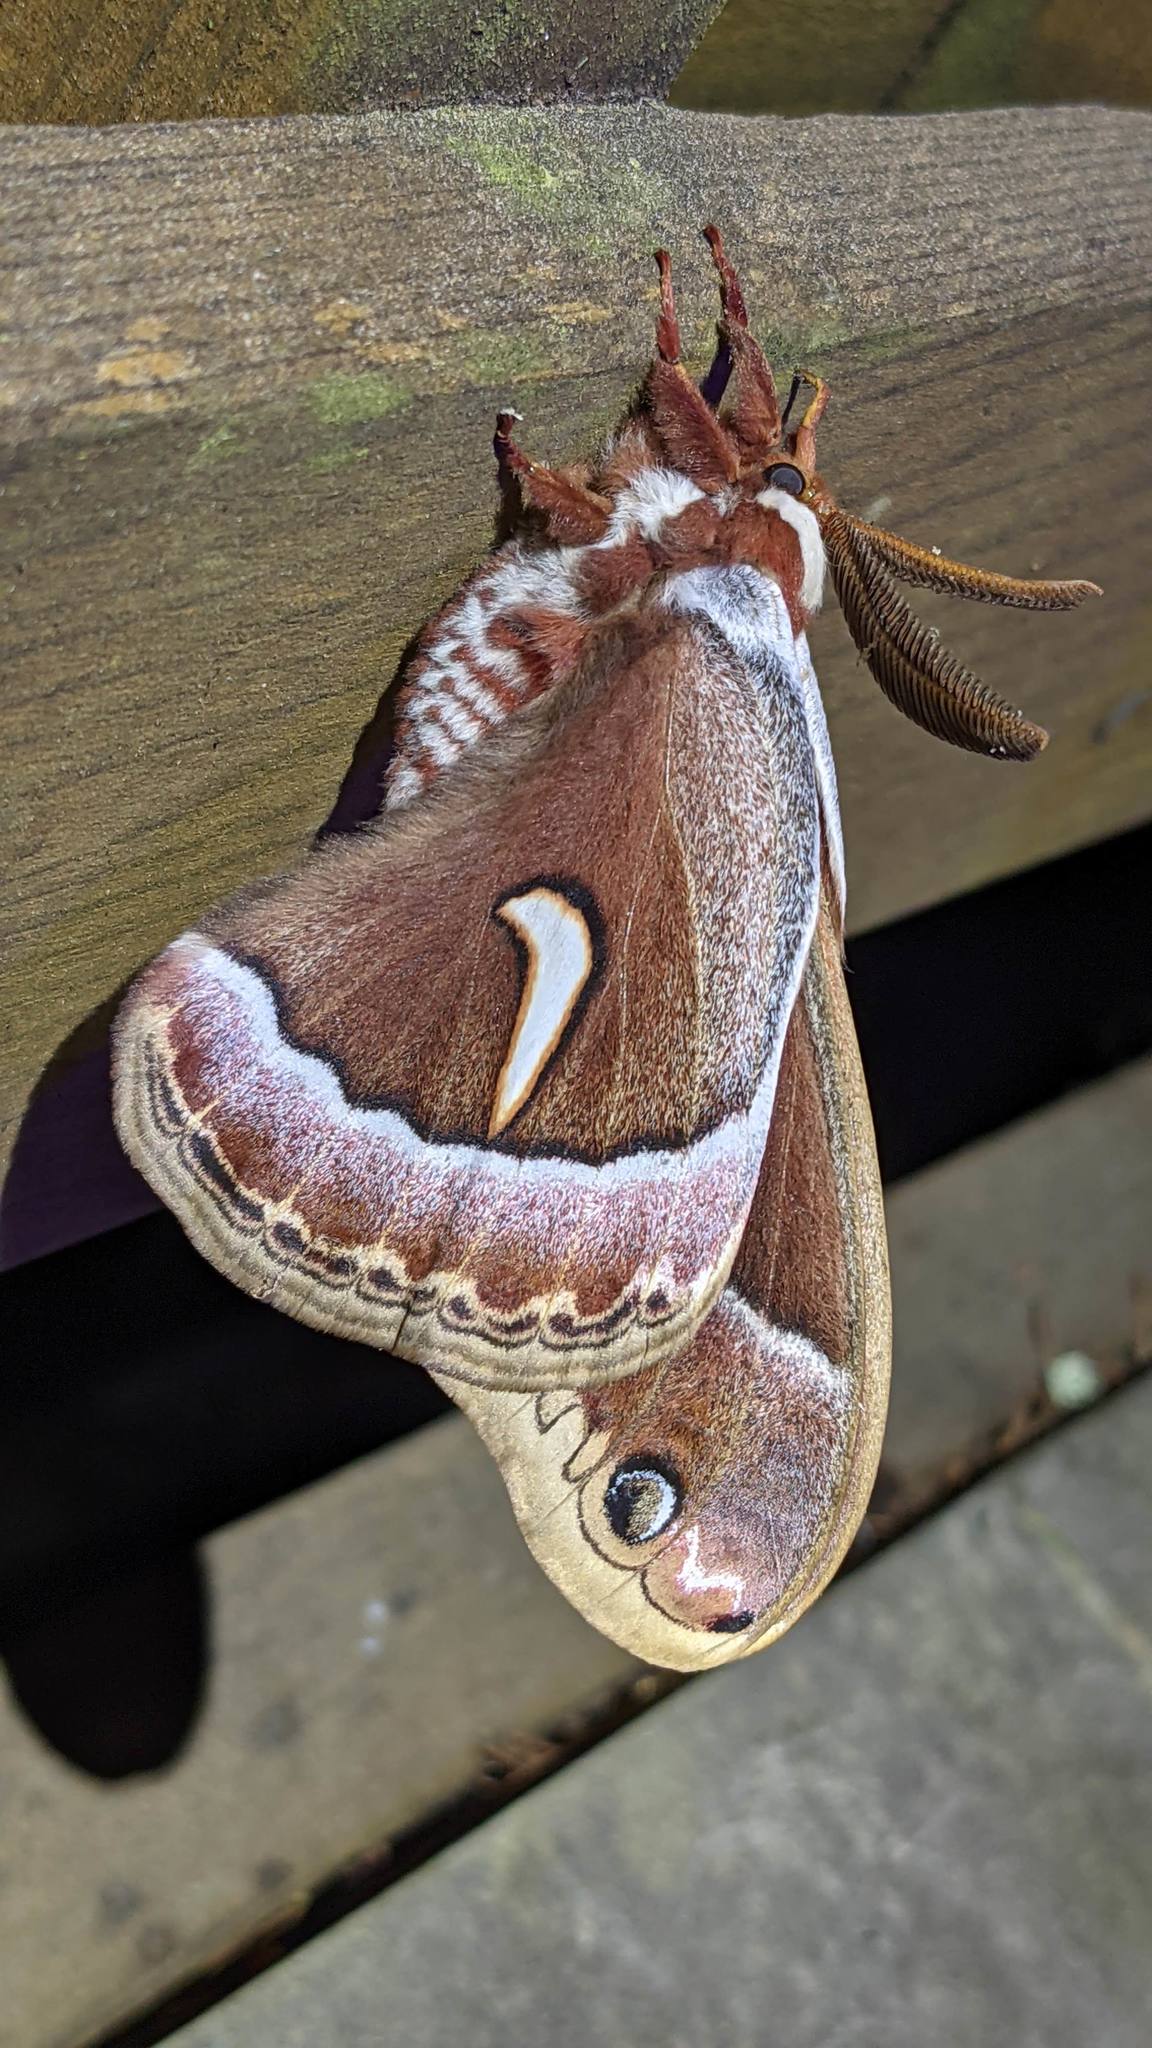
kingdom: Animalia
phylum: Arthropoda
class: Insecta
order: Lepidoptera
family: Saturniidae
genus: Hyalophora
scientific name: Hyalophora euryalus
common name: Ceanothus silkmoth
